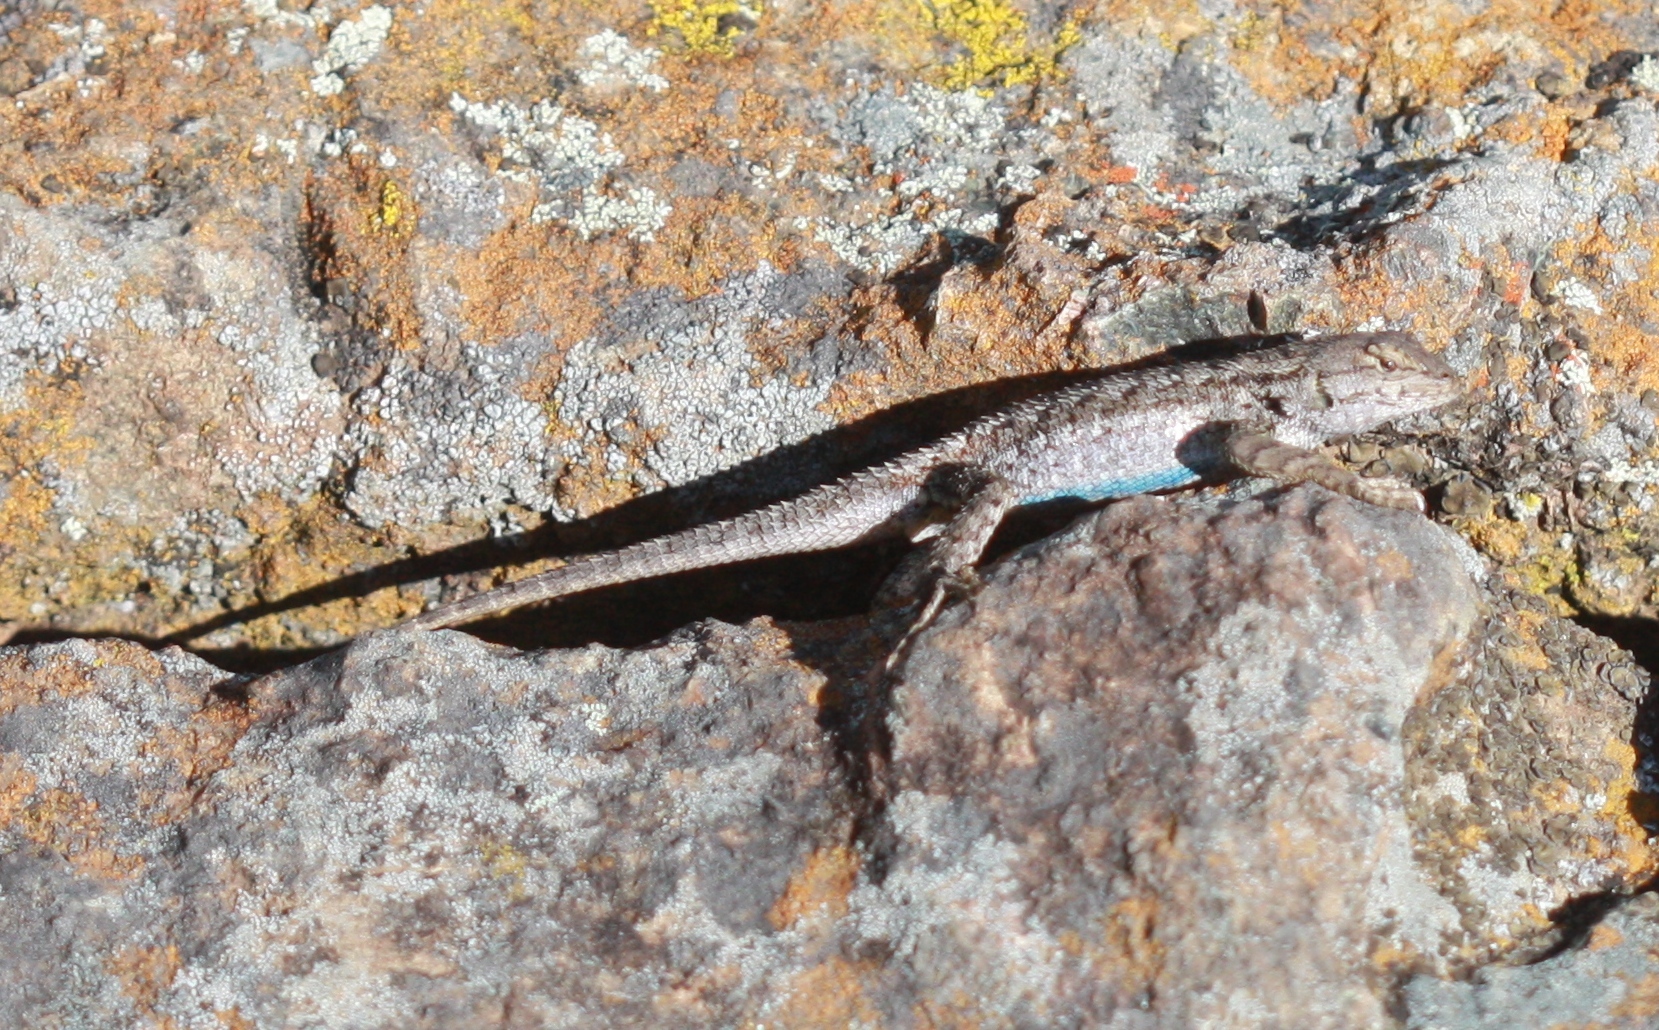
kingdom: Animalia
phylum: Chordata
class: Squamata
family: Phrynosomatidae
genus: Sceloporus
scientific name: Sceloporus occidentalis
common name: Western fence lizard
